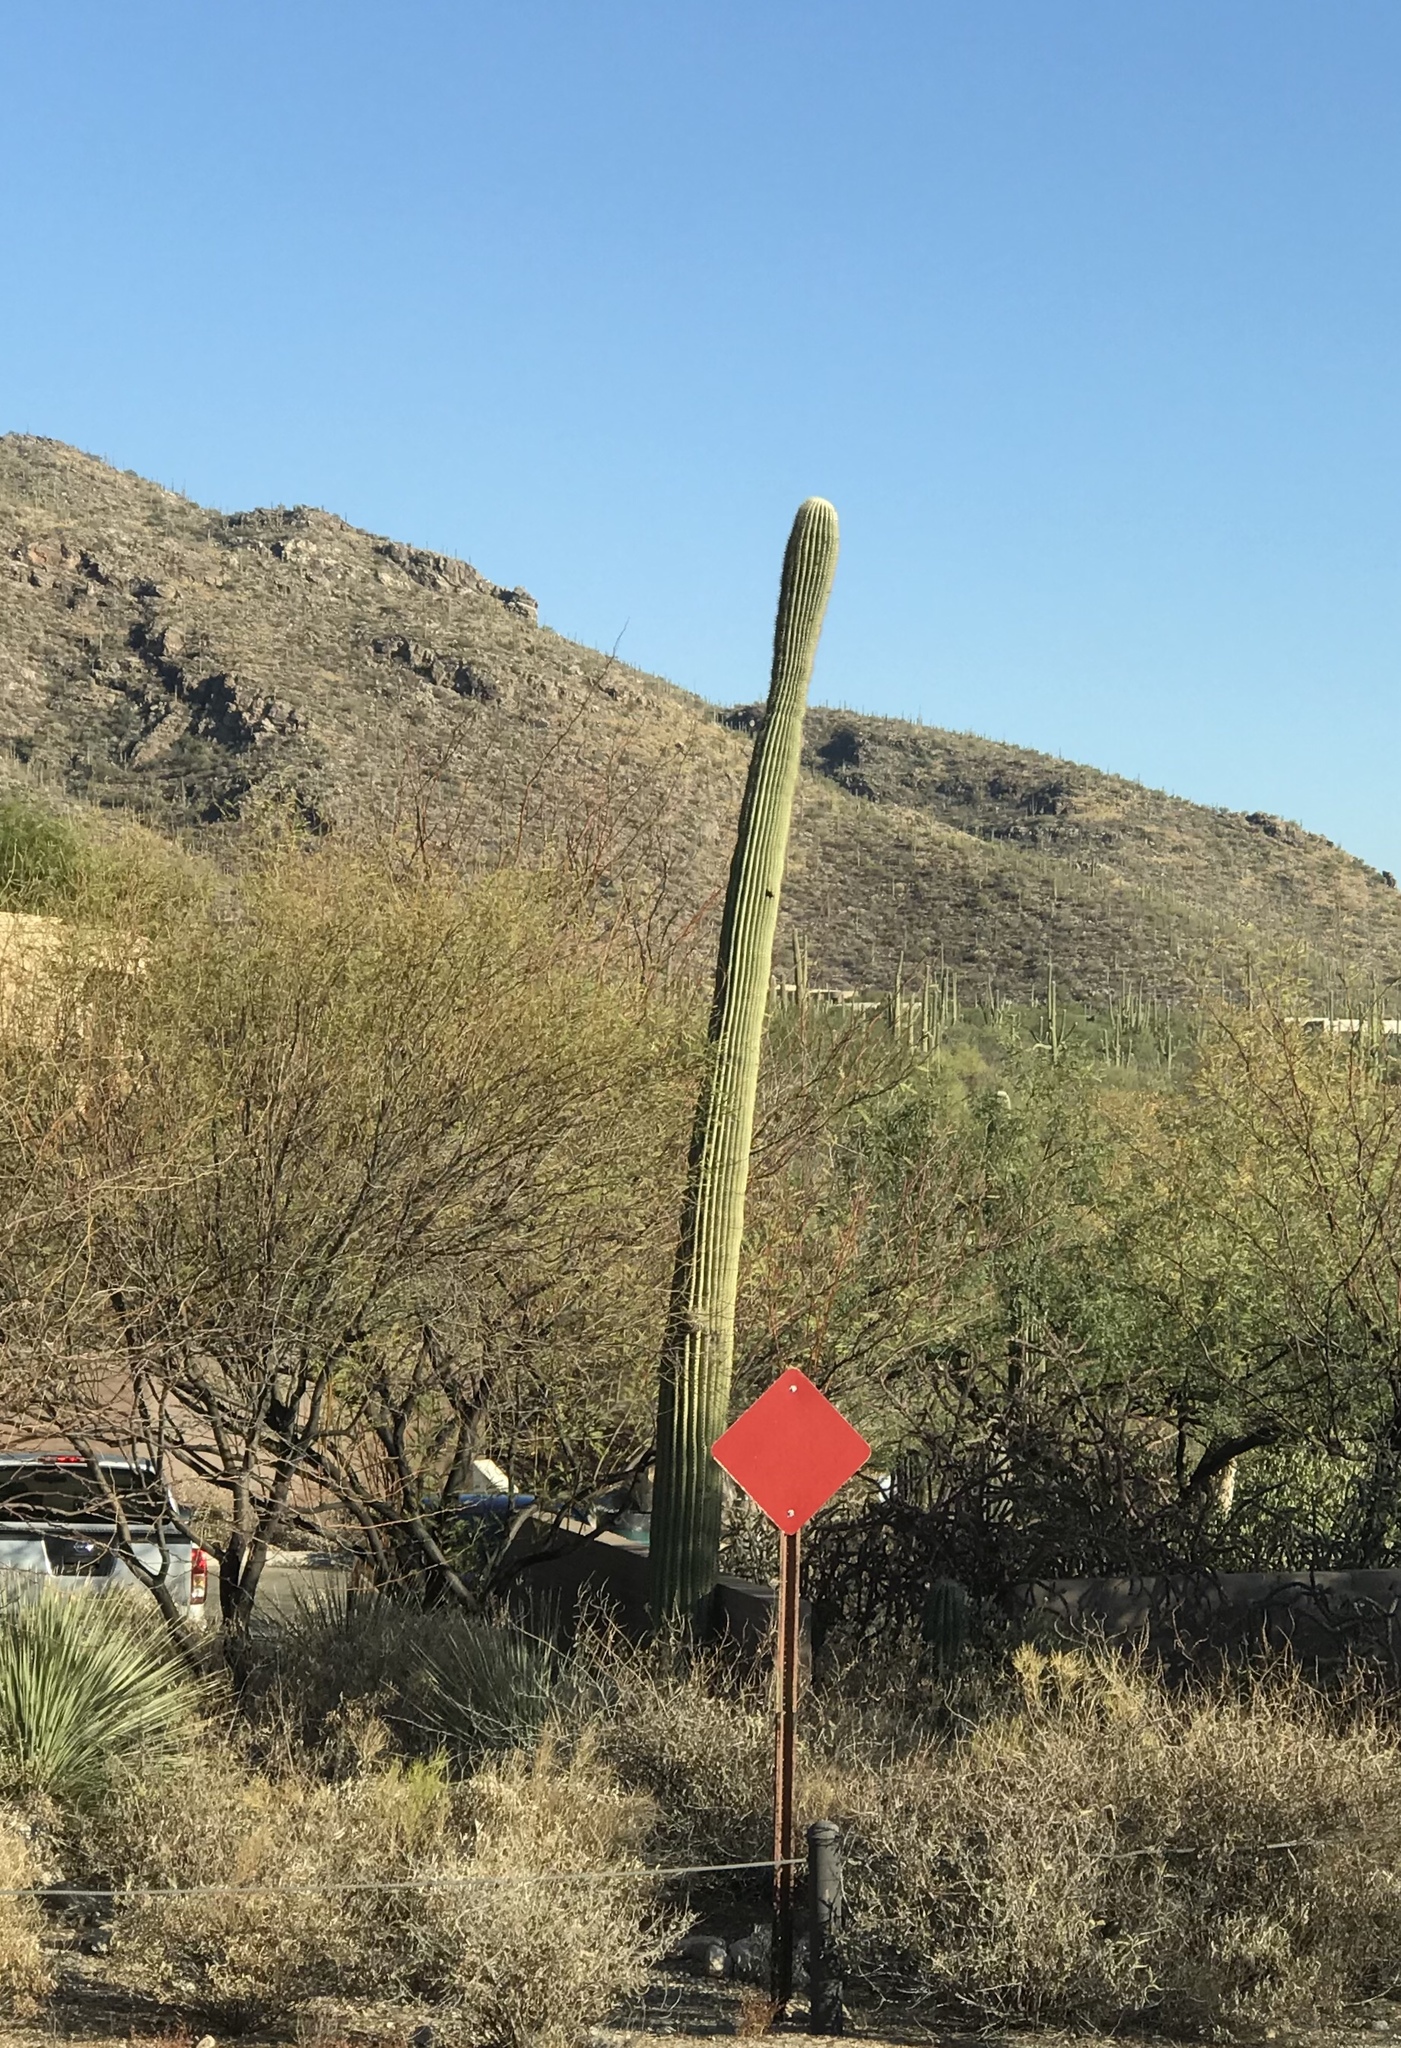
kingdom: Plantae
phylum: Tracheophyta
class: Magnoliopsida
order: Caryophyllales
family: Cactaceae
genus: Carnegiea
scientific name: Carnegiea gigantea
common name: Saguaro
